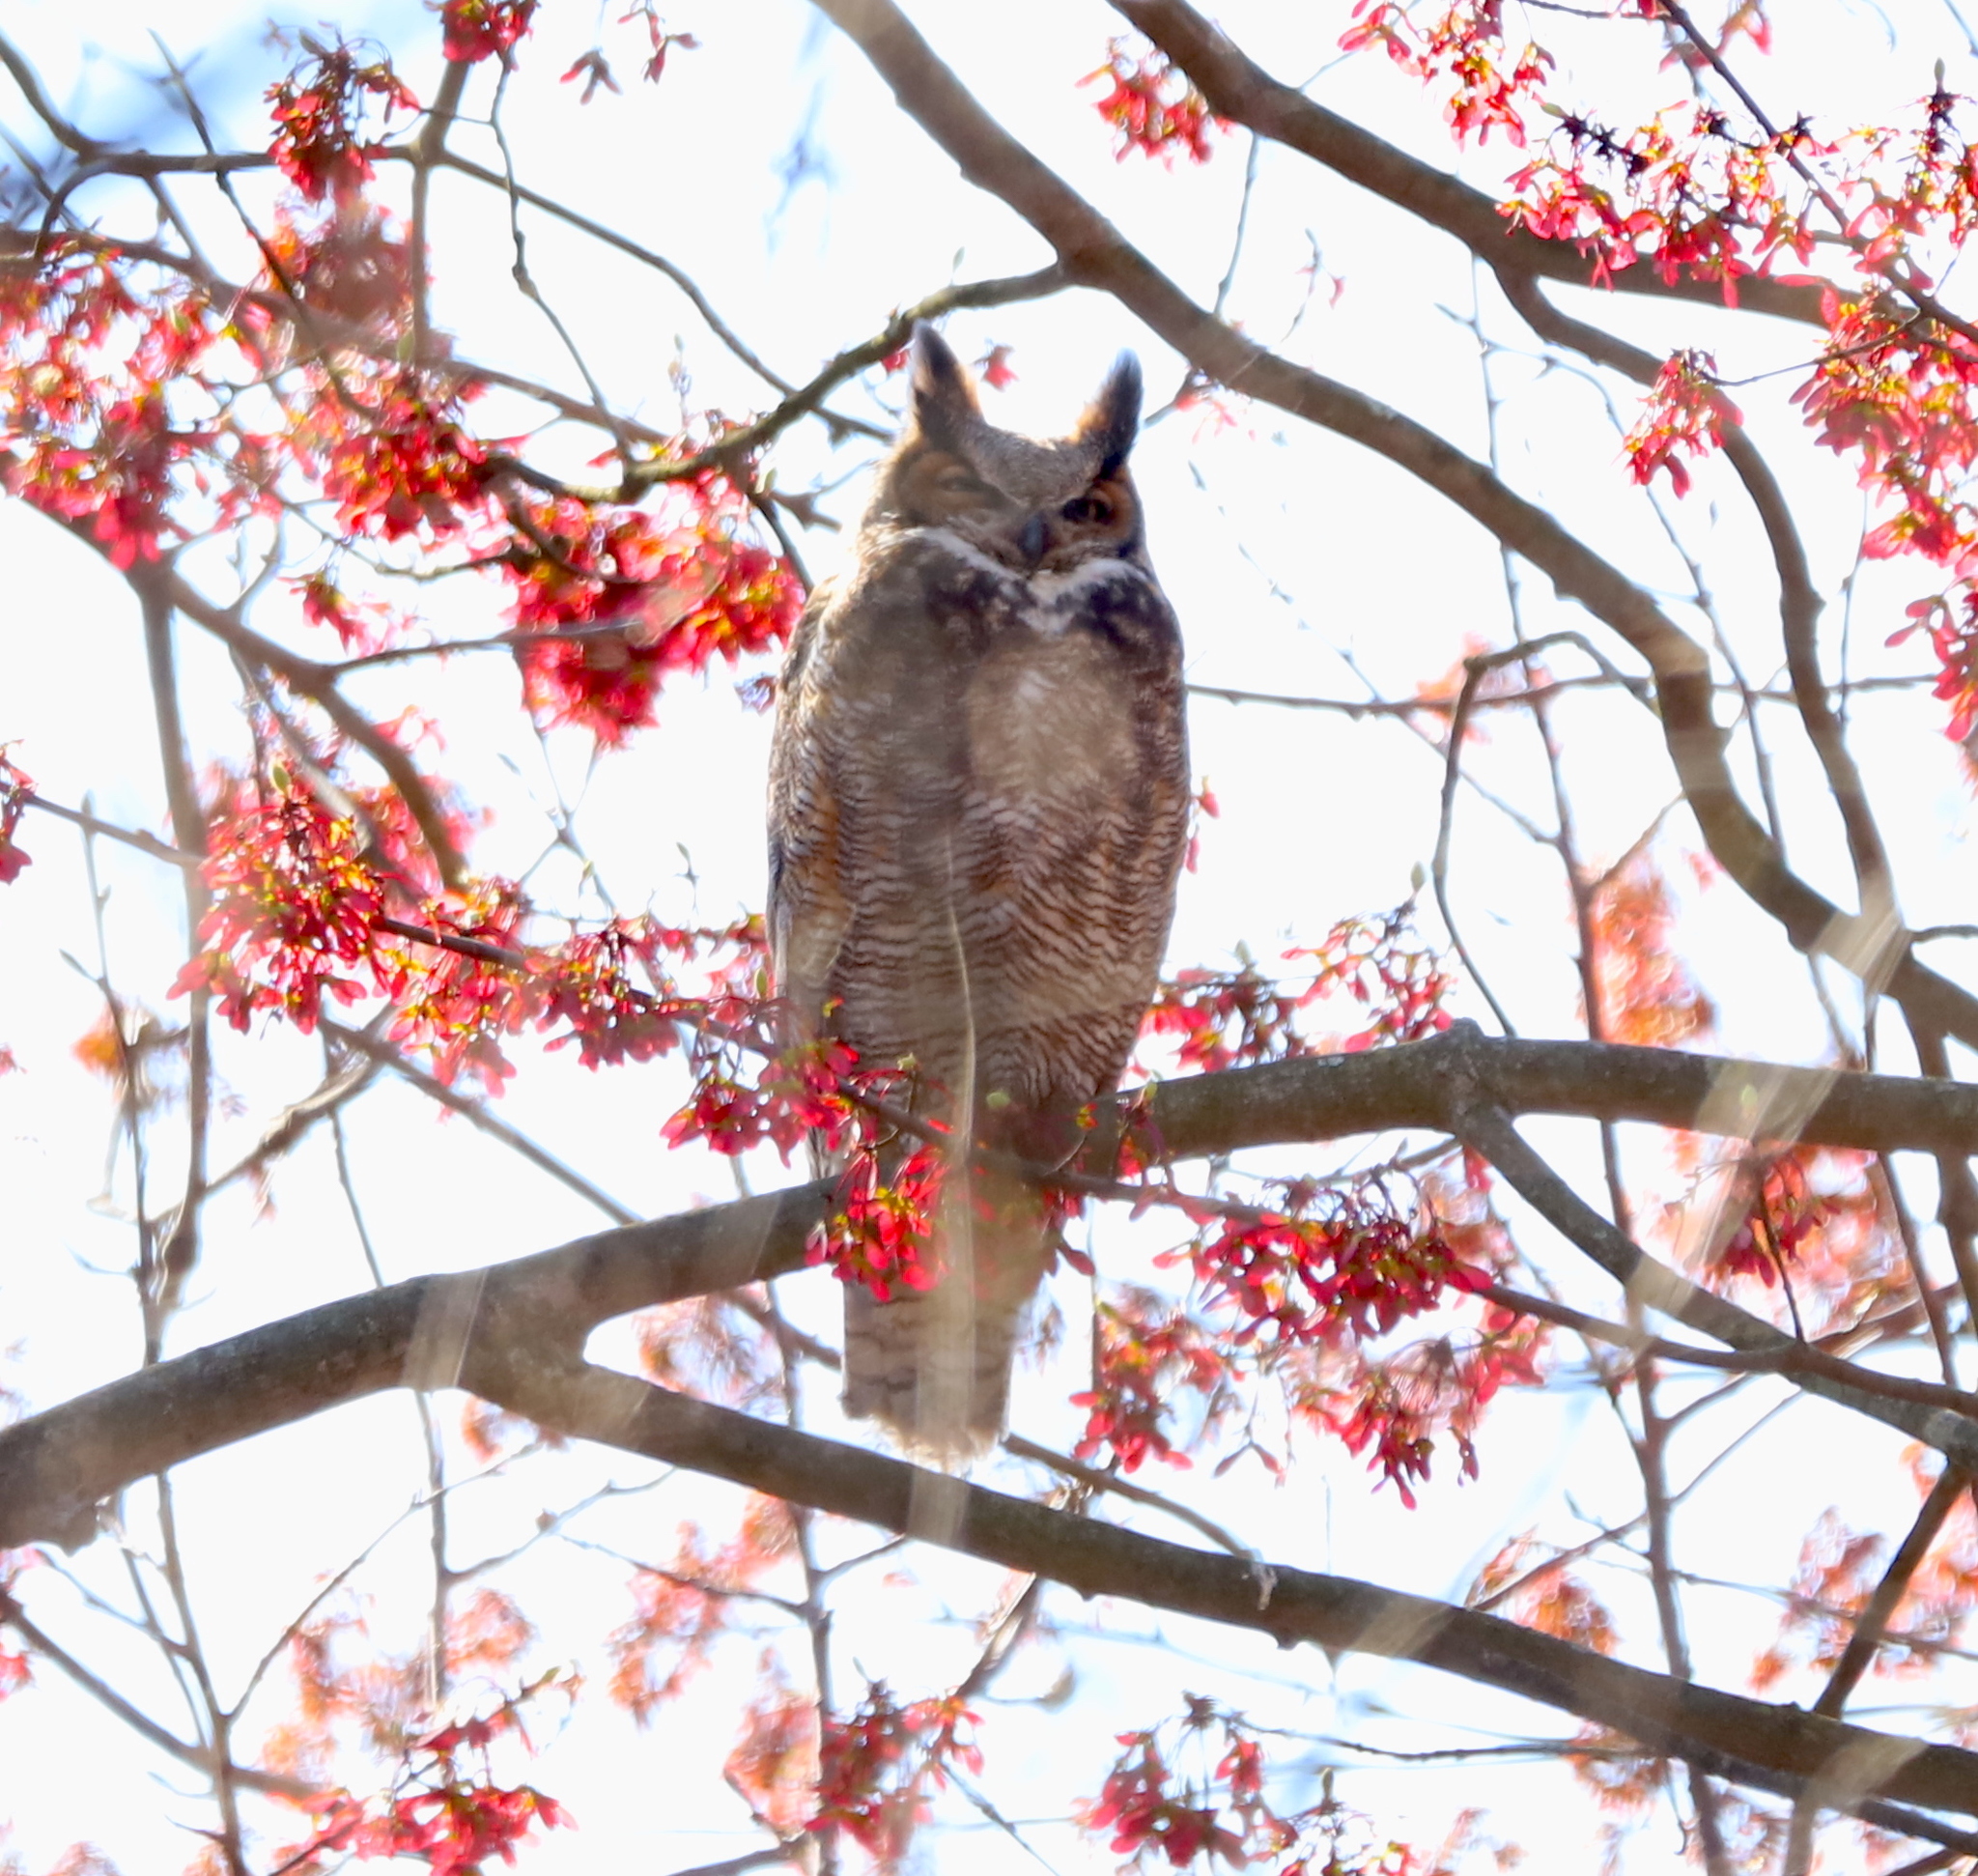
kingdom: Animalia
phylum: Chordata
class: Aves
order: Strigiformes
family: Strigidae
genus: Bubo
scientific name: Bubo virginianus
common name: Great horned owl
